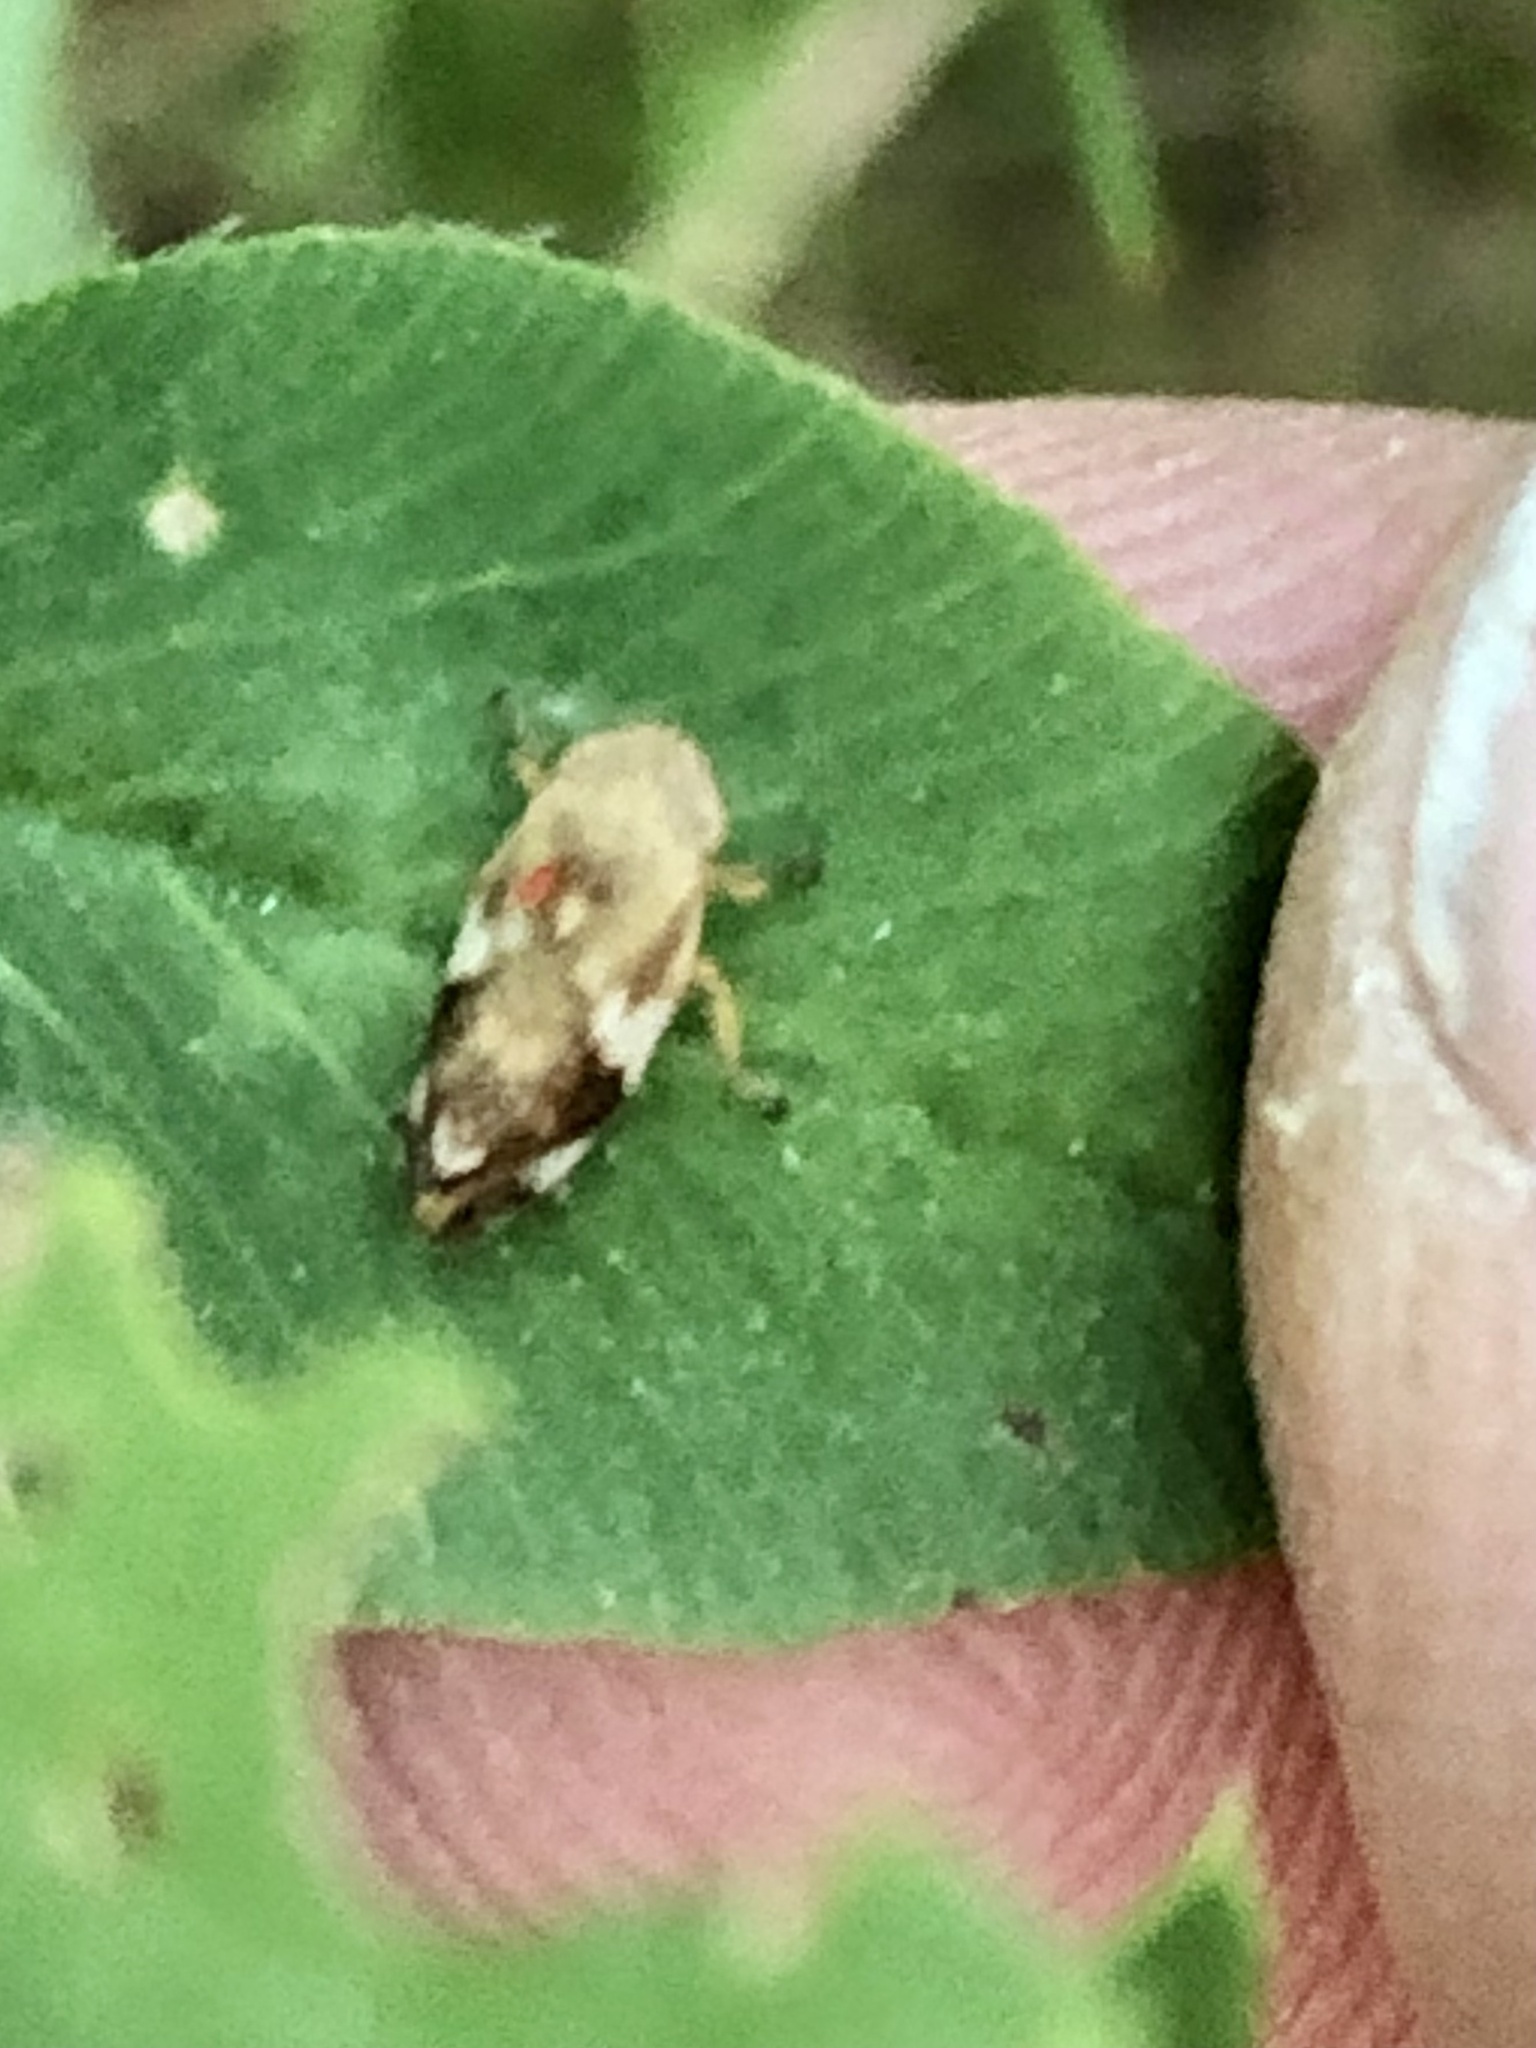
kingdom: Animalia
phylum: Arthropoda
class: Insecta
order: Hemiptera
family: Aphrophoridae
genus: Philaenus
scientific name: Philaenus spumarius
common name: Meadow spittlebug
